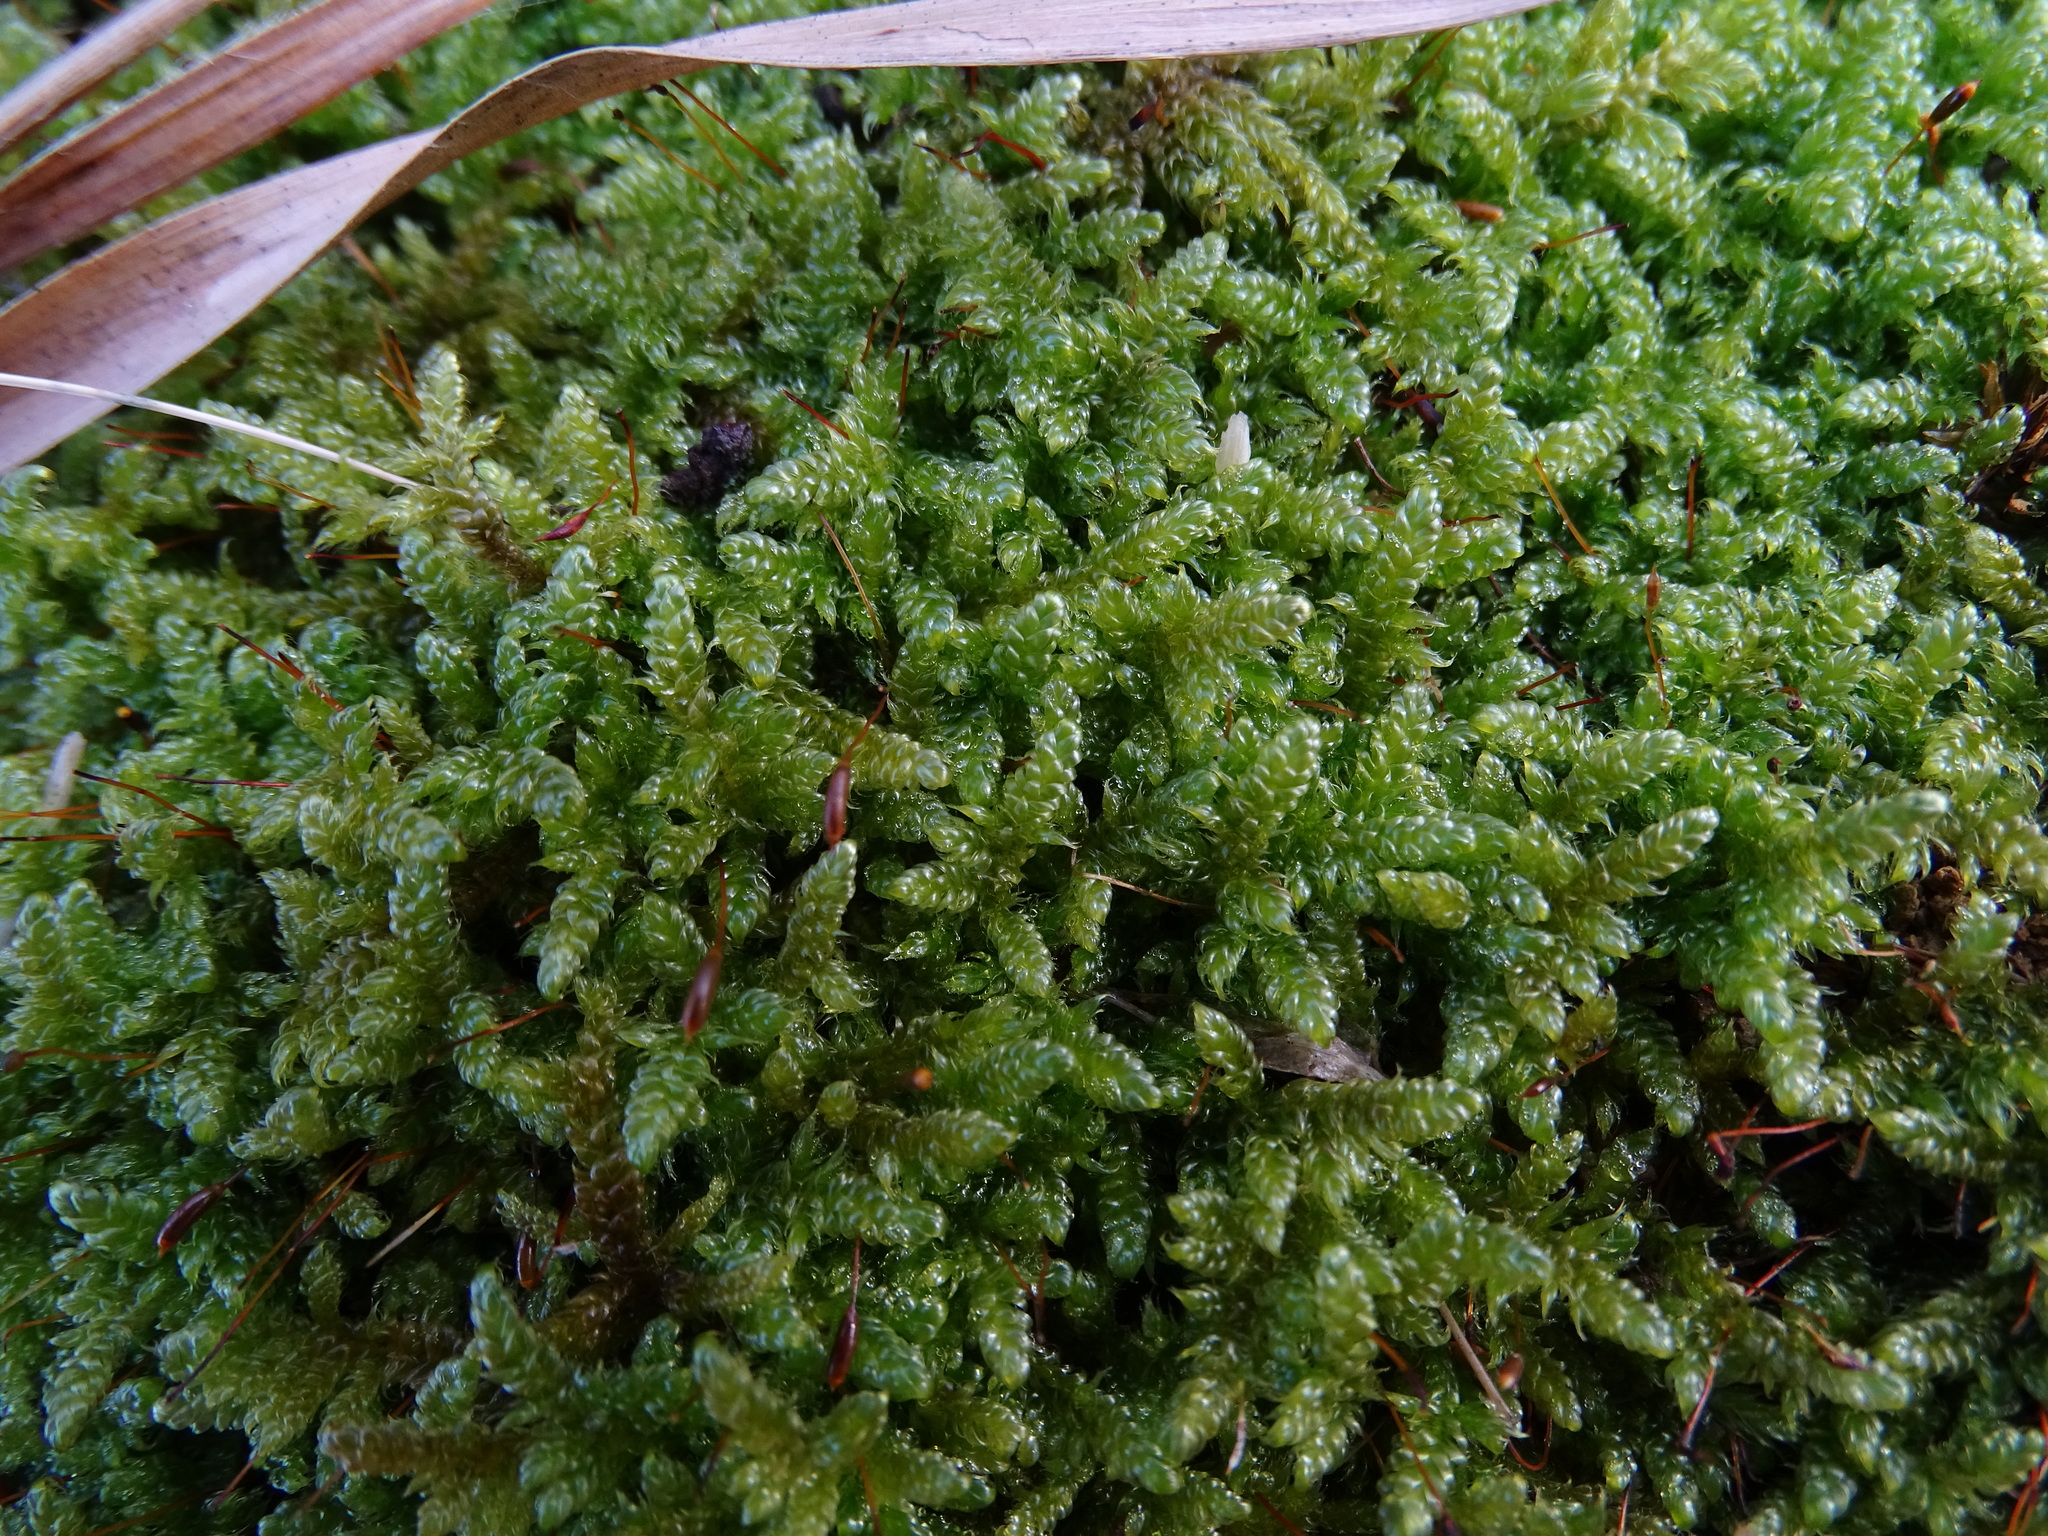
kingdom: Plantae
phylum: Bryophyta
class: Bryopsida
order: Hypnales
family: Hypnaceae
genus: Hypnum
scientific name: Hypnum cupressiforme
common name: Cypress-leaved plait-moss
